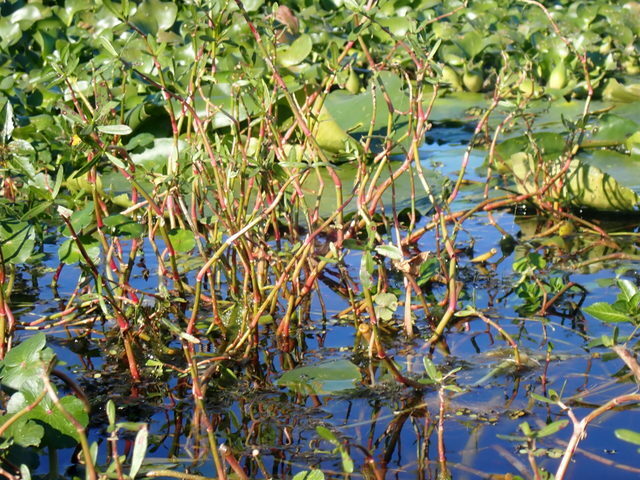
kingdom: Plantae
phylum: Tracheophyta
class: Magnoliopsida
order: Caryophyllales
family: Amaranthaceae
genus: Alternanthera
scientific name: Alternanthera philoxeroides
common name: Alligatorweed
